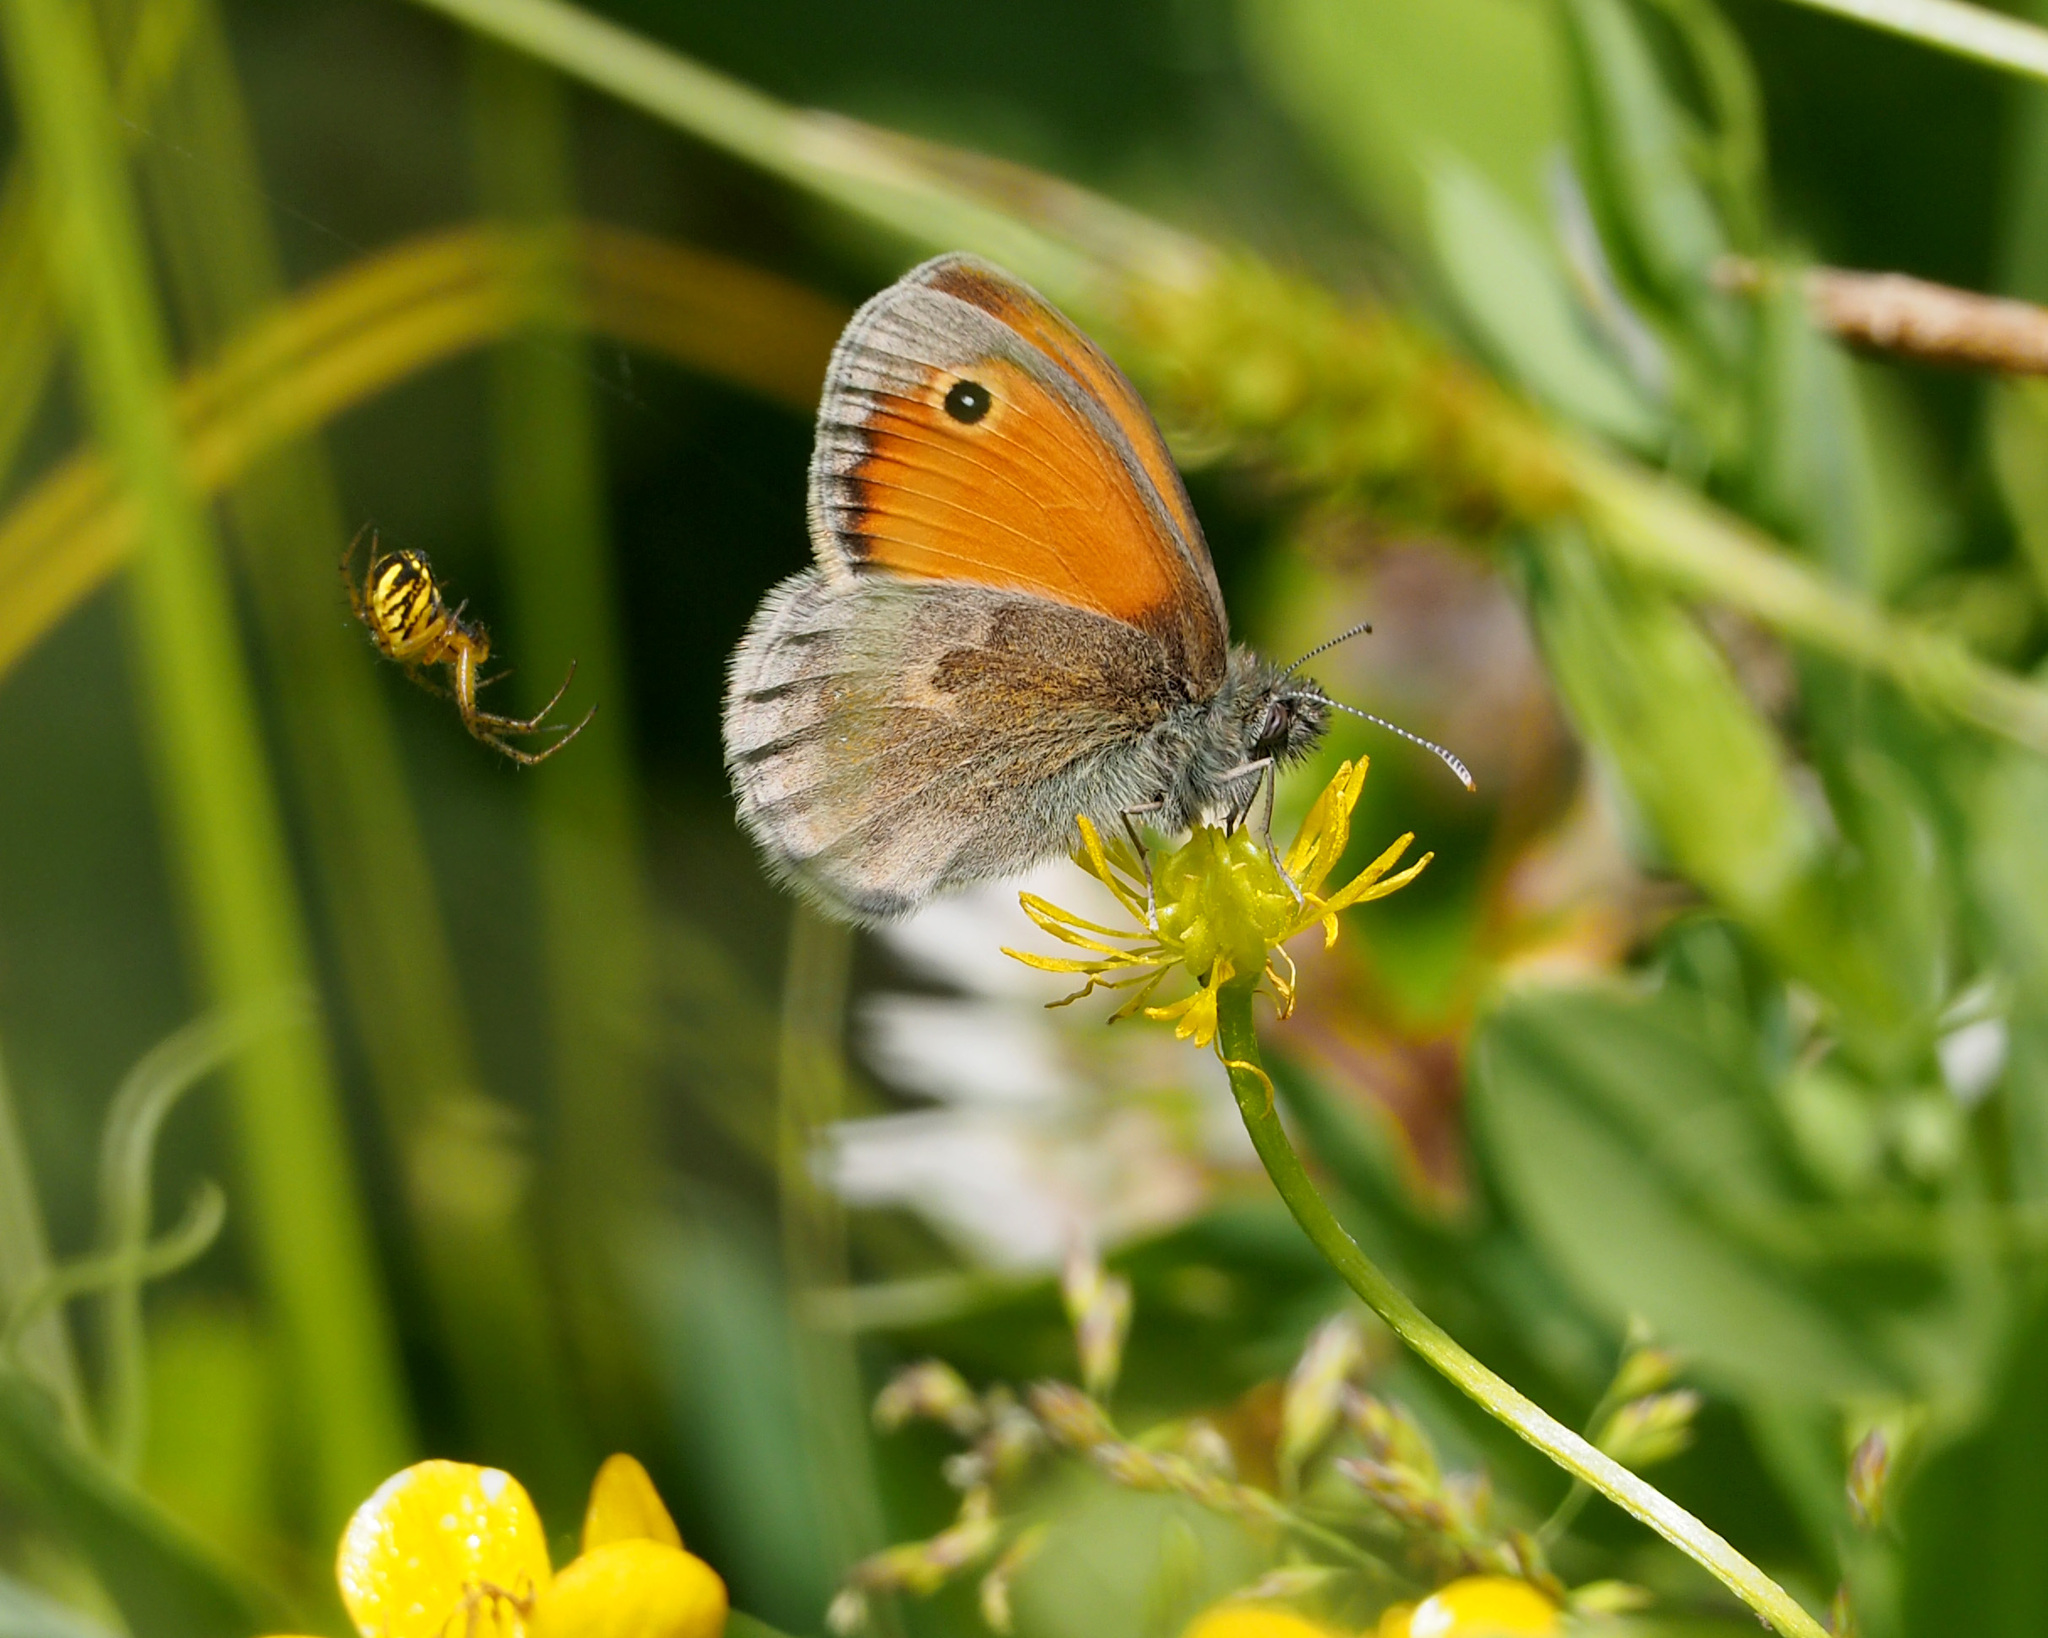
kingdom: Animalia
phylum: Arthropoda
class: Insecta
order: Lepidoptera
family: Nymphalidae
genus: Coenonympha
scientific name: Coenonympha pamphilus
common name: Small heath
